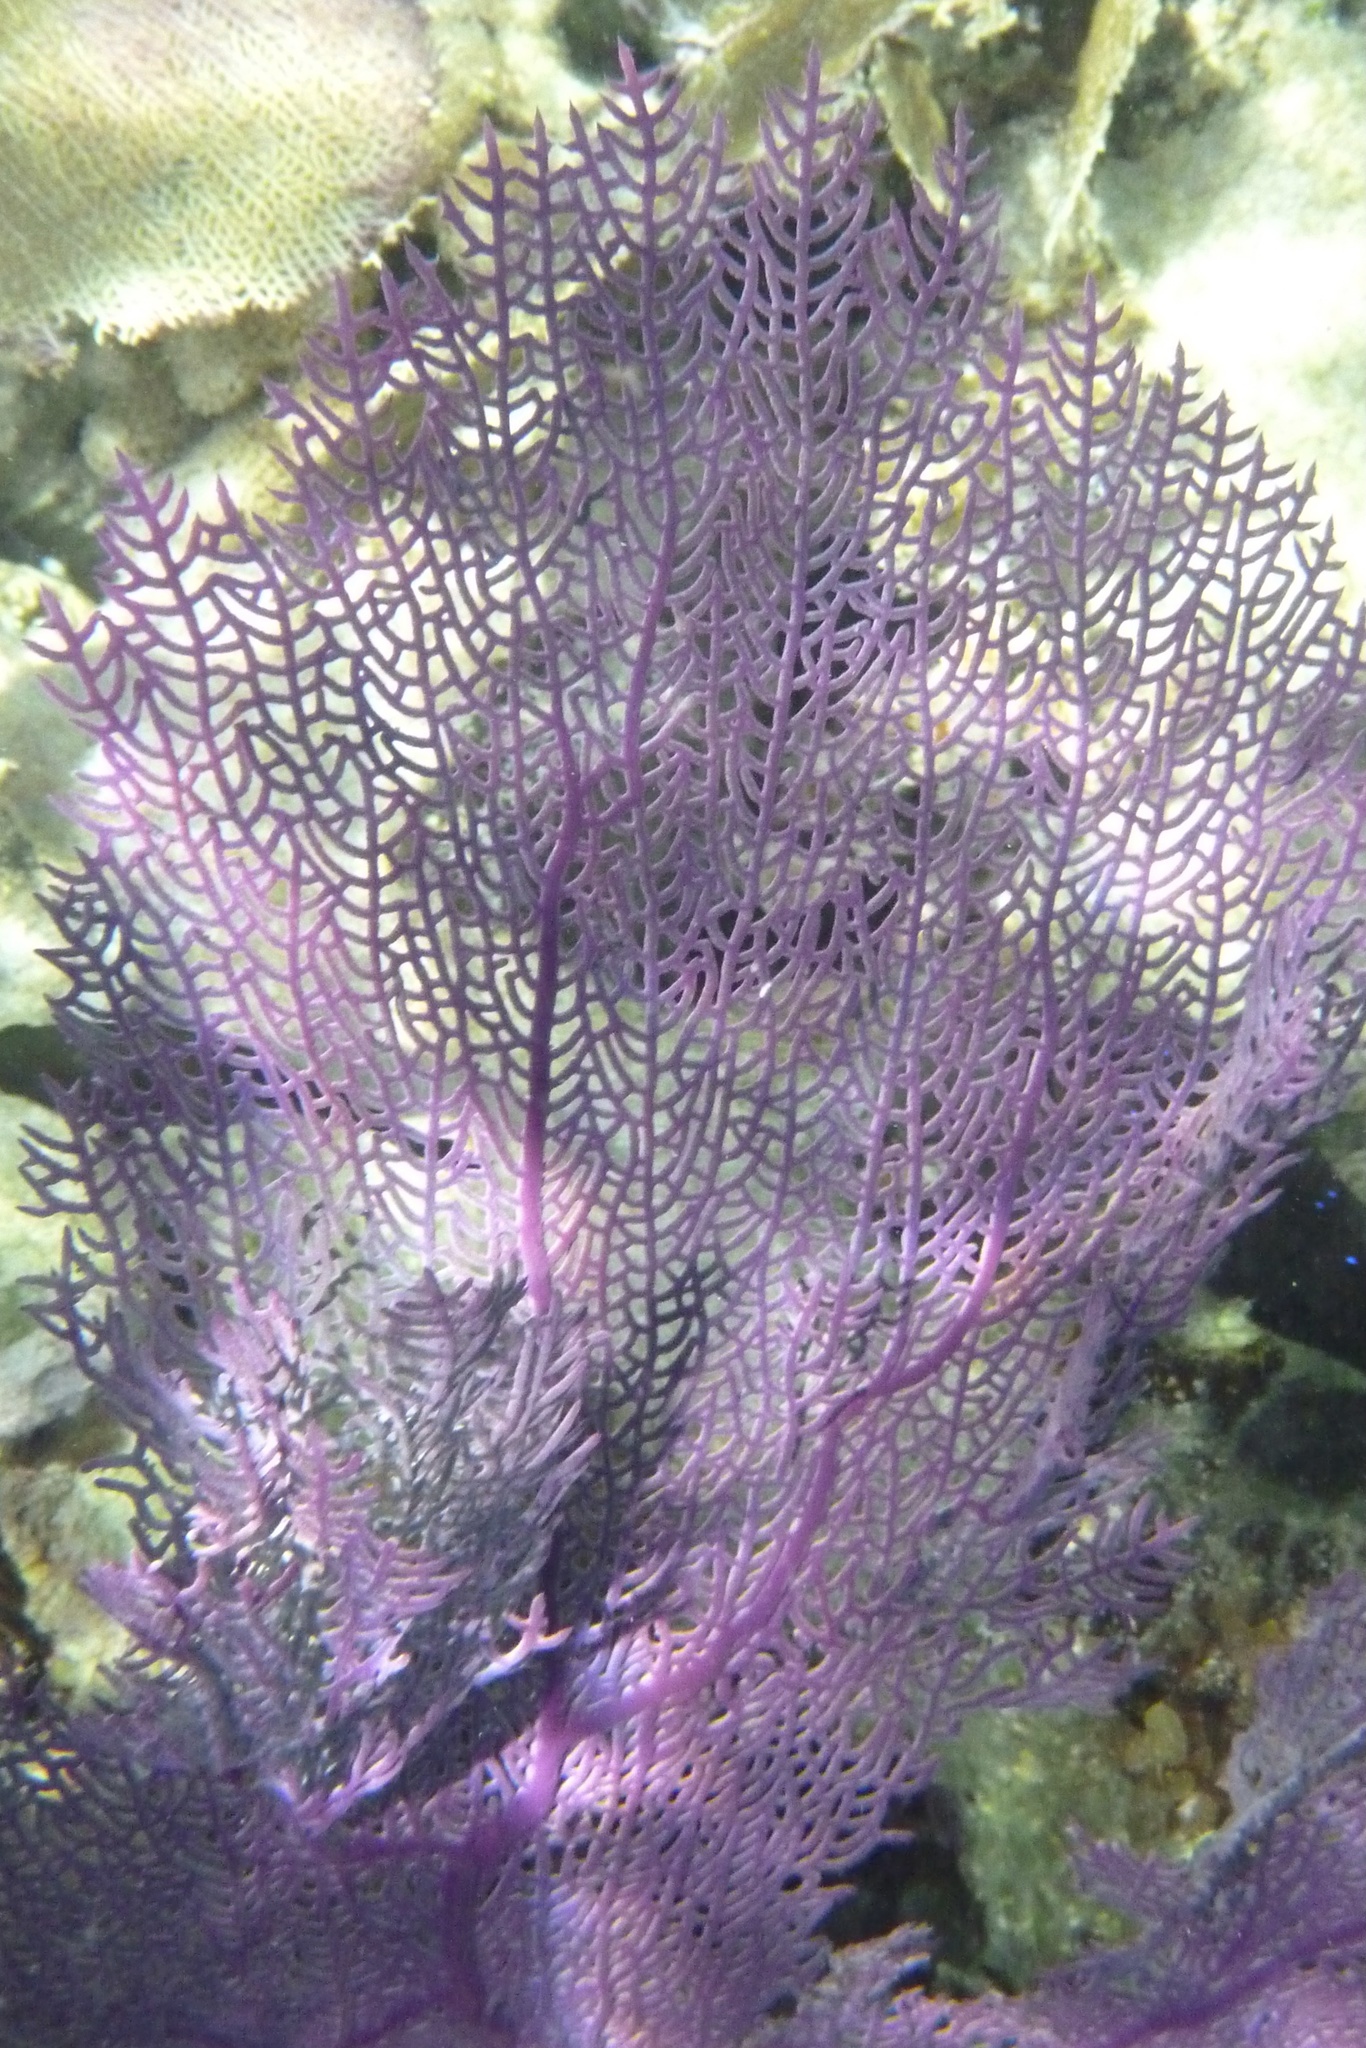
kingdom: Animalia
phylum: Cnidaria
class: Anthozoa
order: Malacalcyonacea
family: Gorgoniidae
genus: Gorgonia
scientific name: Gorgonia ventalina
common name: Common sea fan
